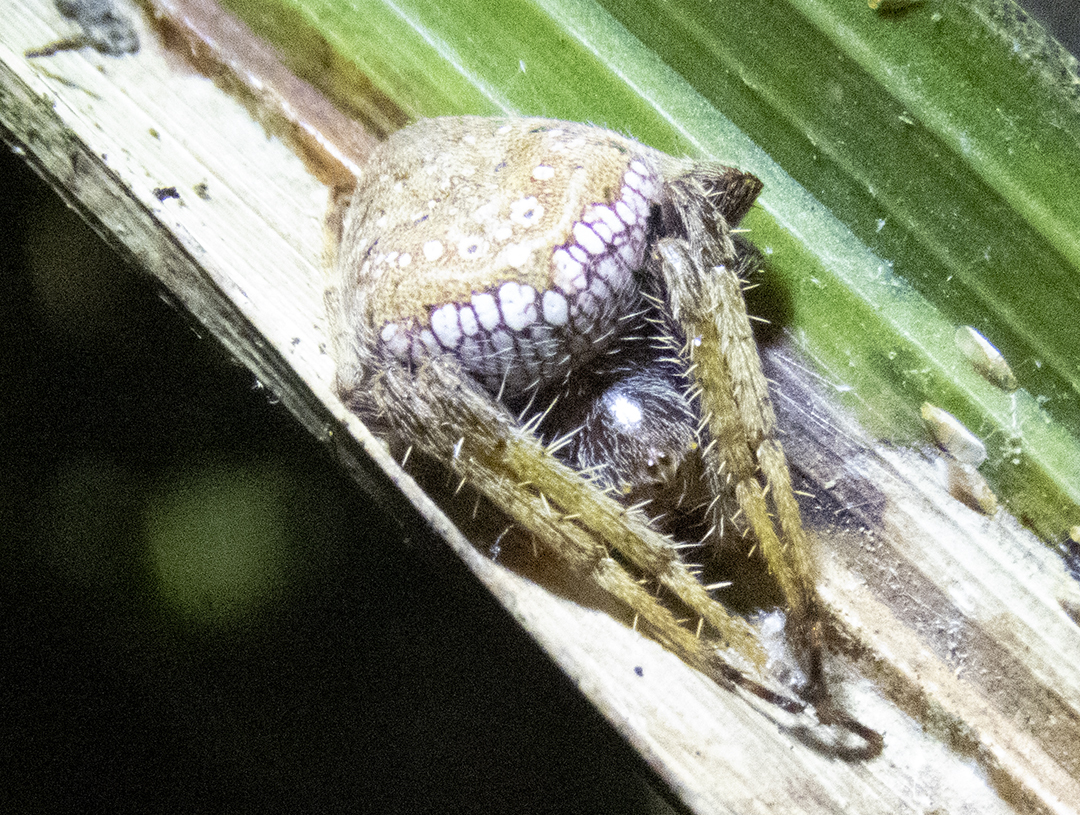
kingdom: Animalia
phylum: Arthropoda
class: Arachnida
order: Araneae
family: Araneidae
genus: Zealaranea
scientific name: Zealaranea crassa
